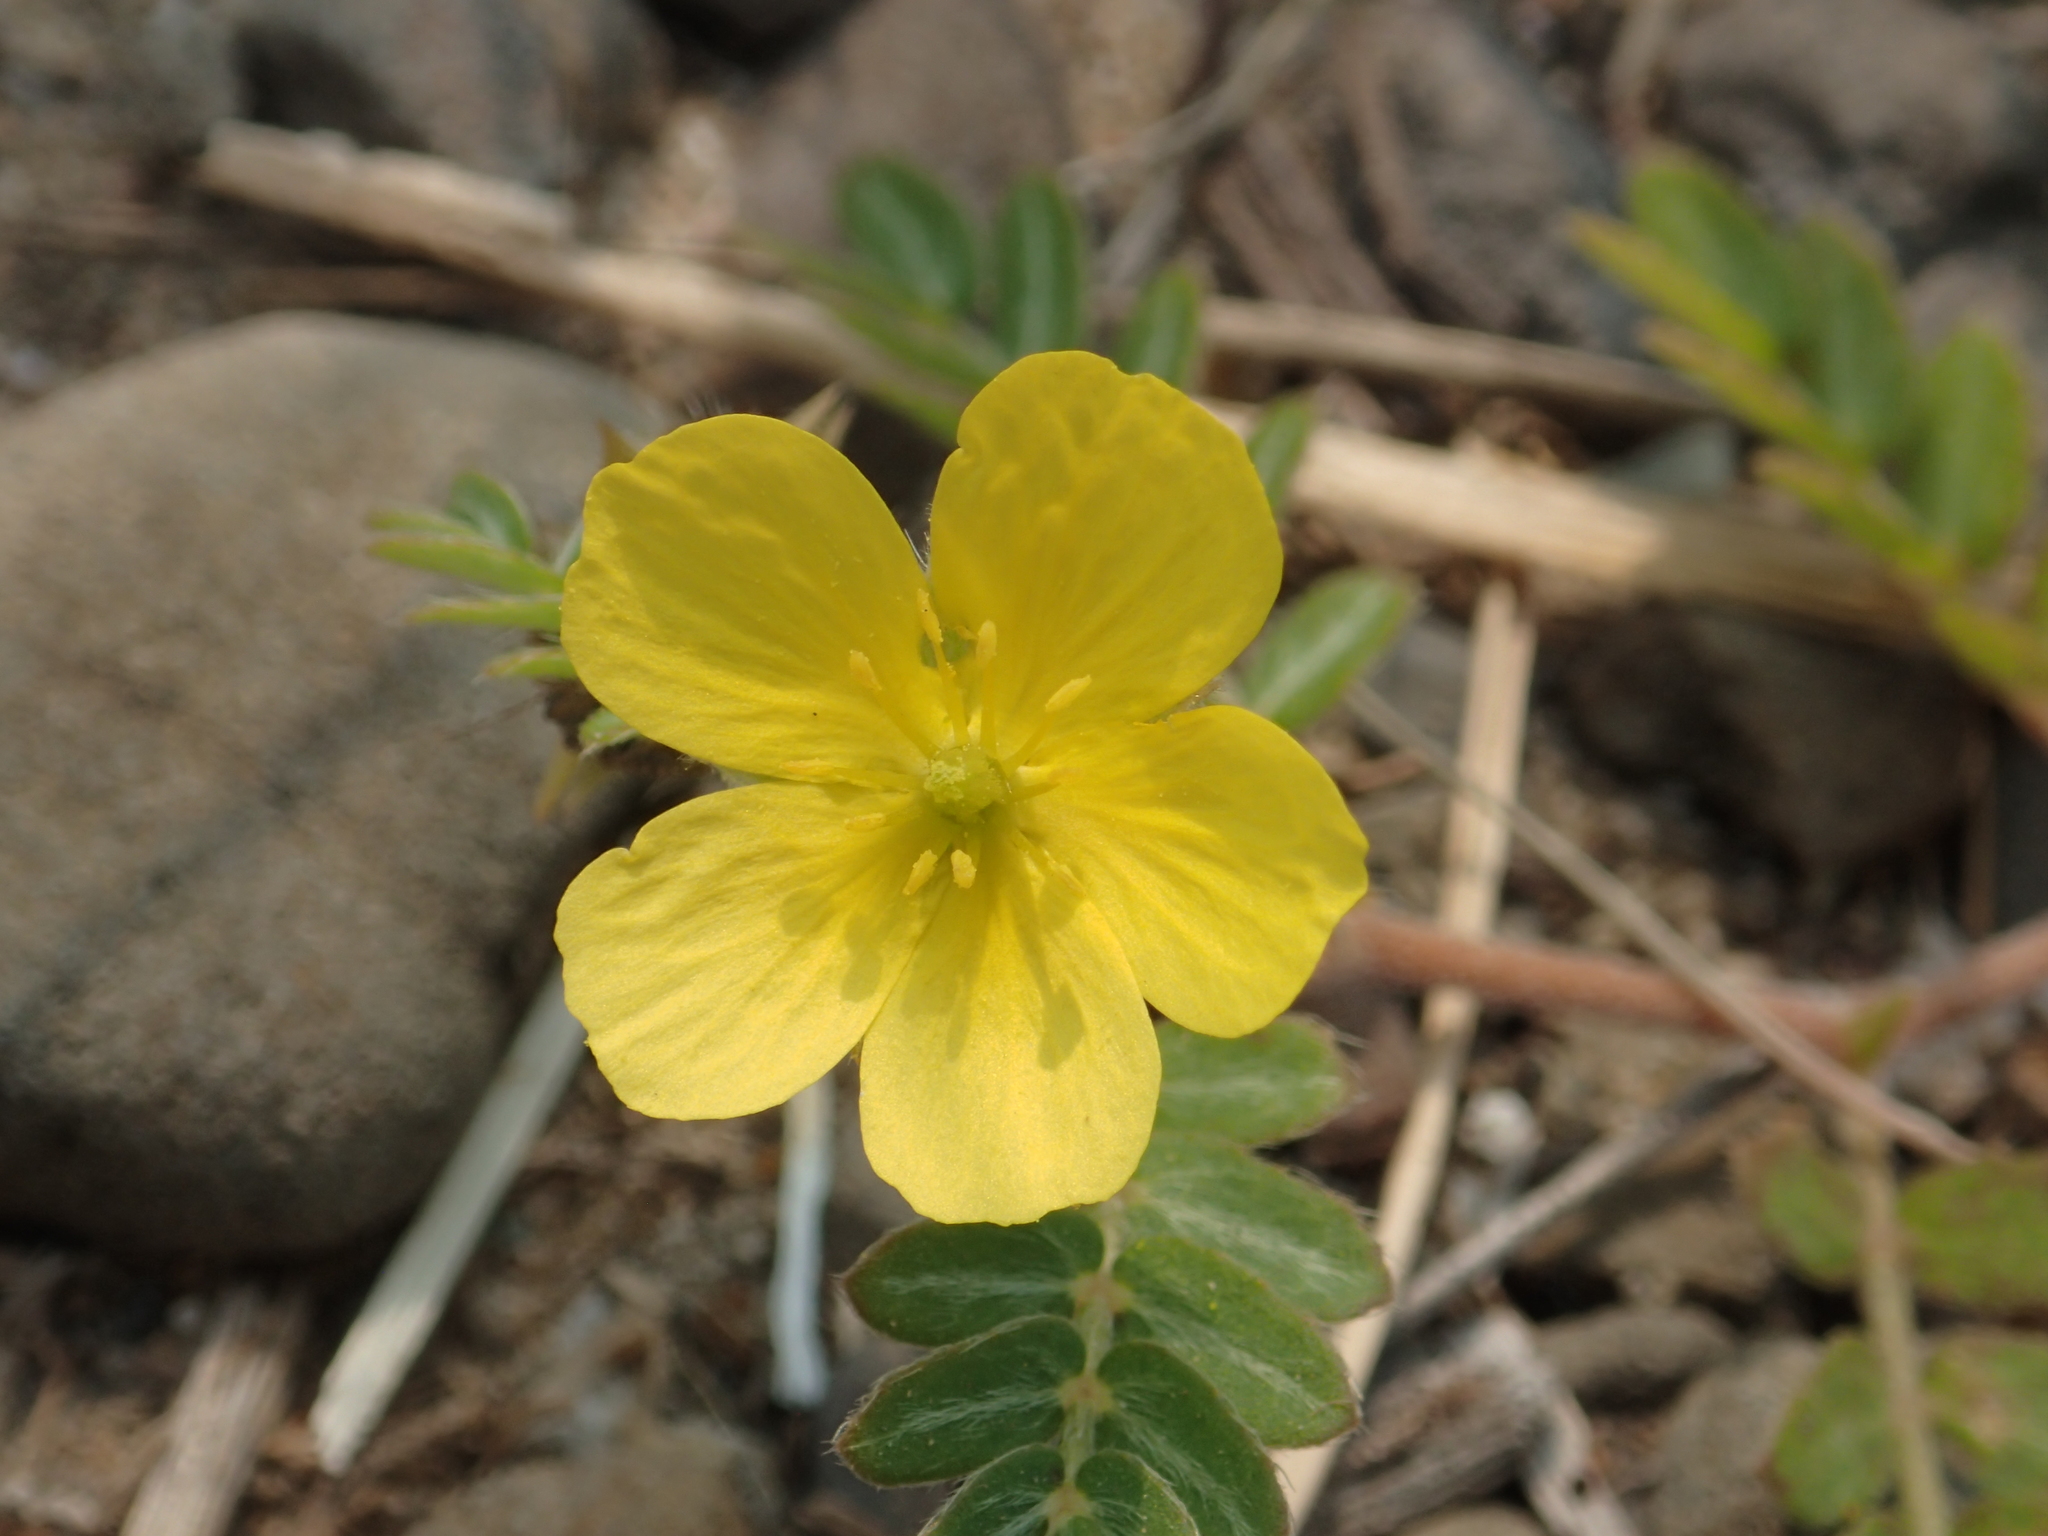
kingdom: Plantae
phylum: Tracheophyta
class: Magnoliopsida
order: Zygophyllales
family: Zygophyllaceae
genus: Tribulus
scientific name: Tribulus cistoides
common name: Jamaican feverplant
